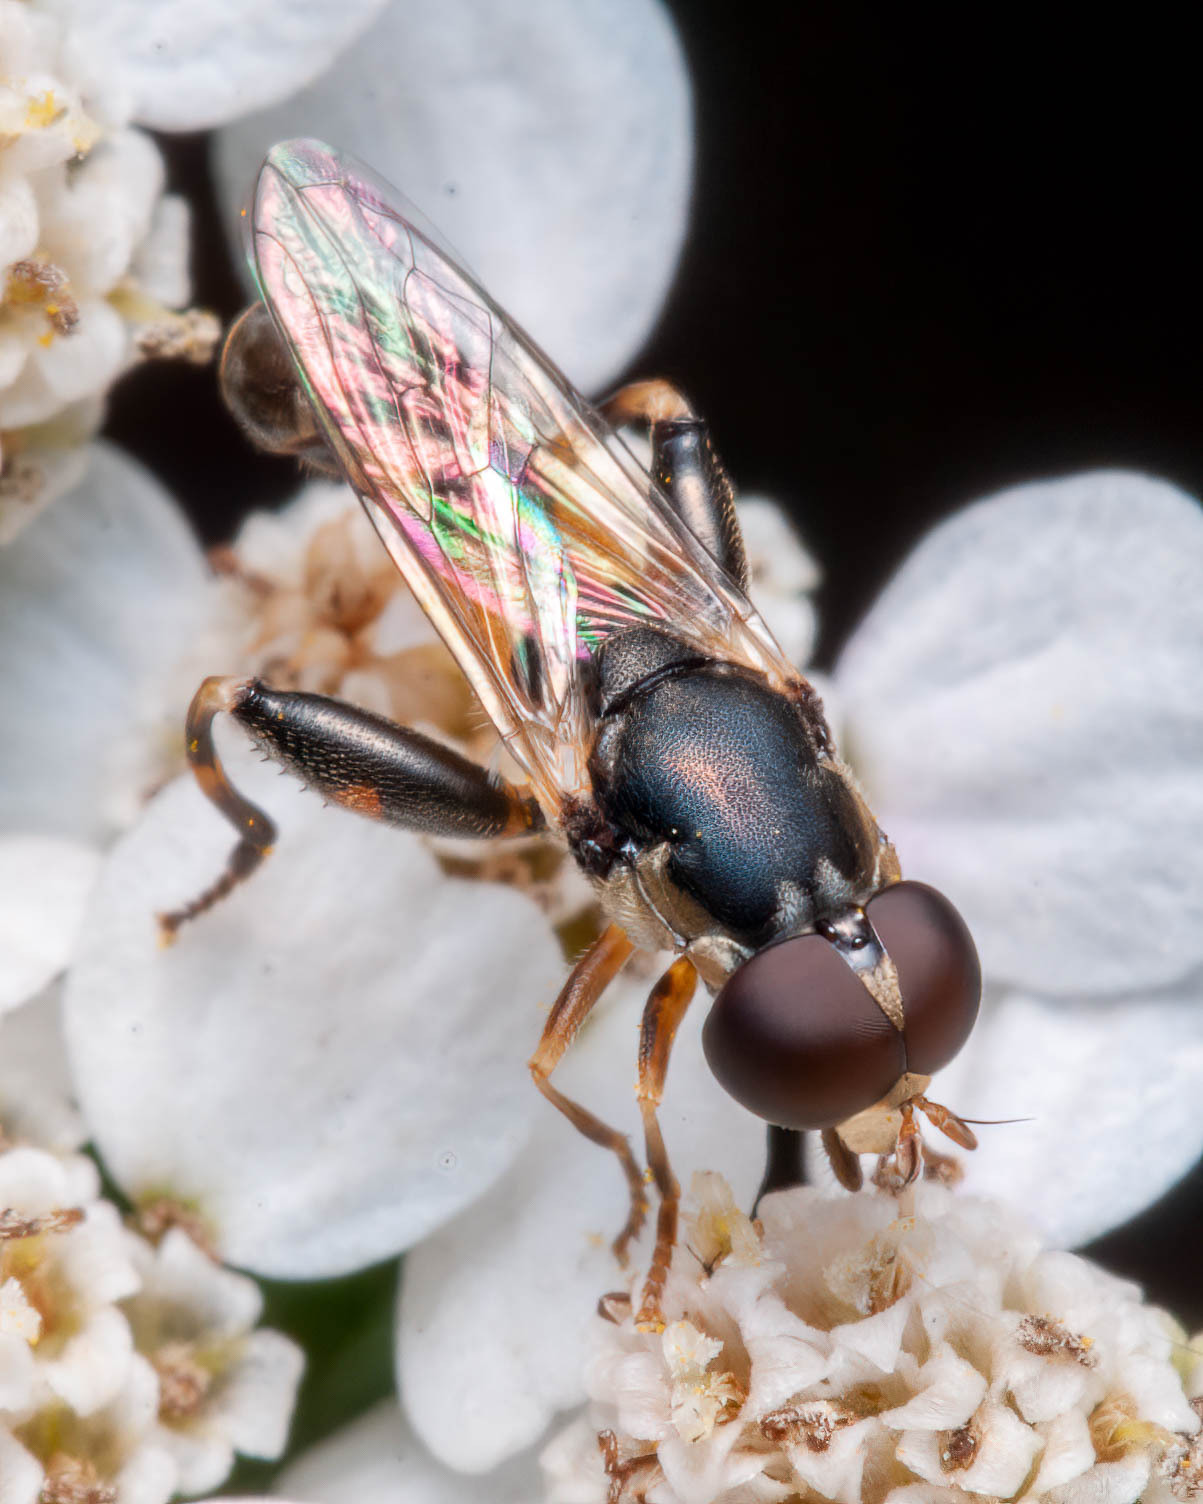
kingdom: Animalia
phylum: Arthropoda
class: Insecta
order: Diptera
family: Syrphidae
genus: Syritta
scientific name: Syritta pipiens
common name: Hover fly
